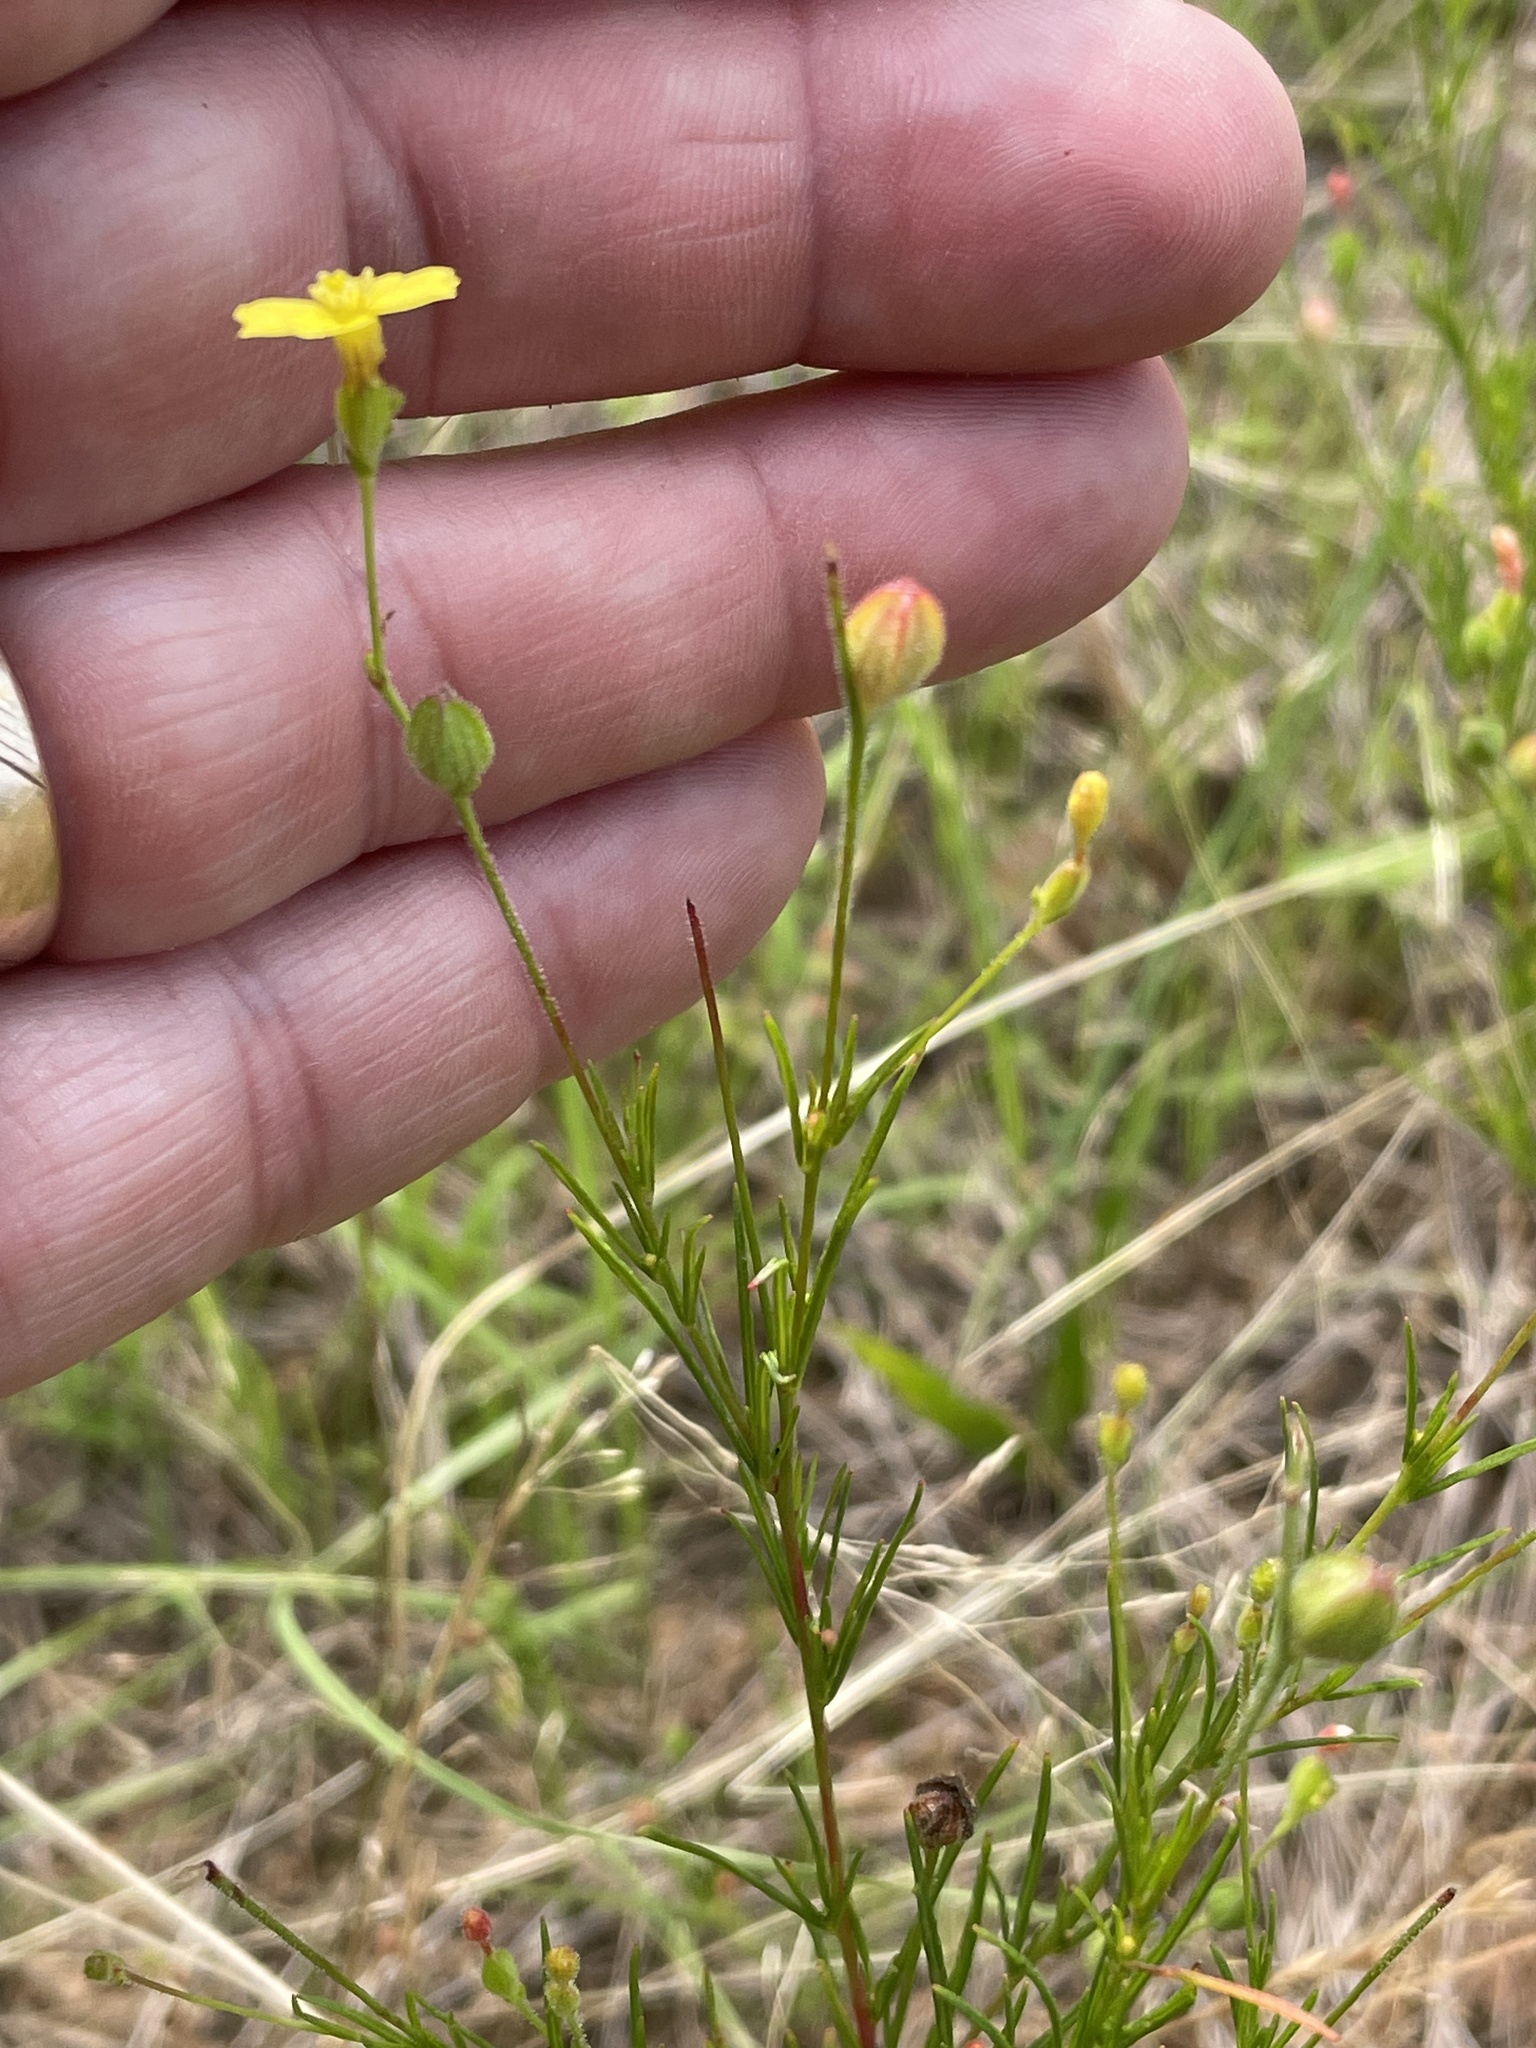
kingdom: Plantae
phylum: Tracheophyta
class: Magnoliopsida
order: Myrtales
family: Onagraceae
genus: Oenothera
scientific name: Oenothera linifolia
